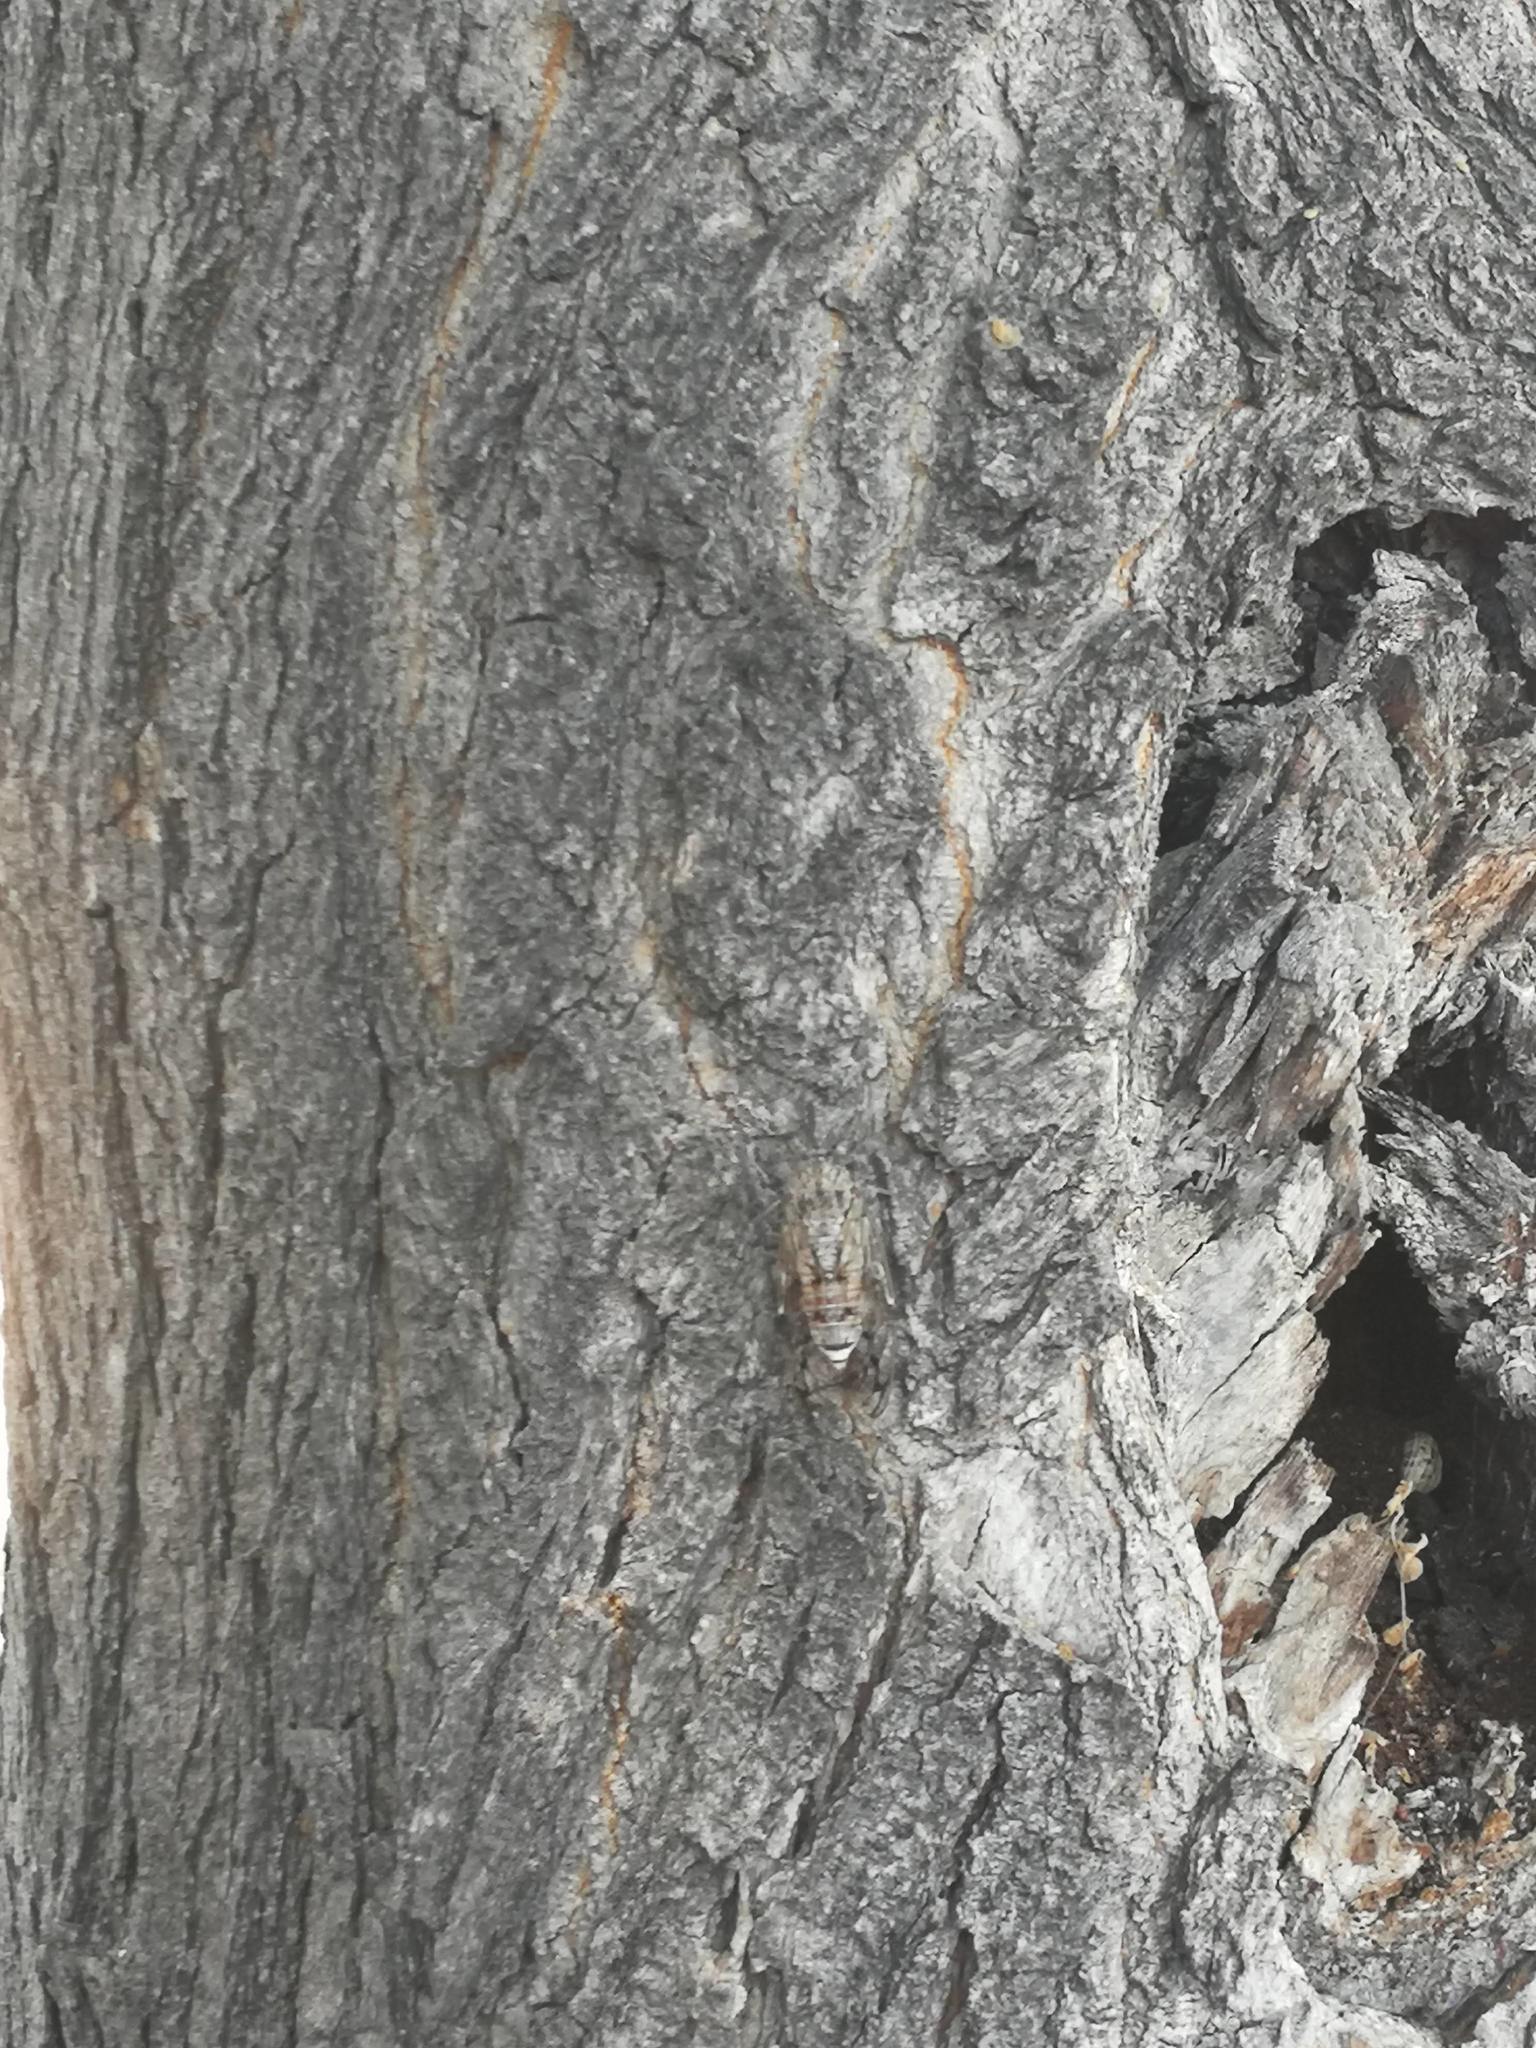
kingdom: Animalia
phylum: Arthropoda
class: Insecta
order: Hemiptera
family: Cicadidae
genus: Cicada
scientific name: Cicada mordoganensis
